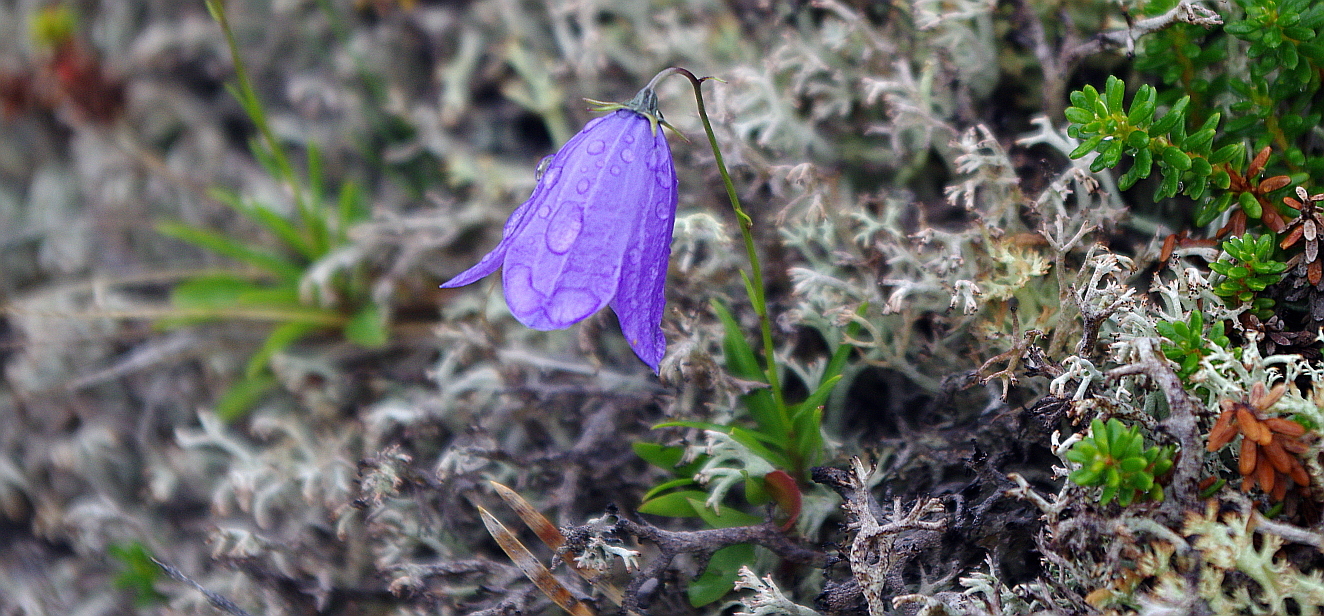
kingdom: Plantae
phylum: Tracheophyta
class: Magnoliopsida
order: Asterales
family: Campanulaceae
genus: Campanula
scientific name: Campanula rotundifolia
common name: Harebell
